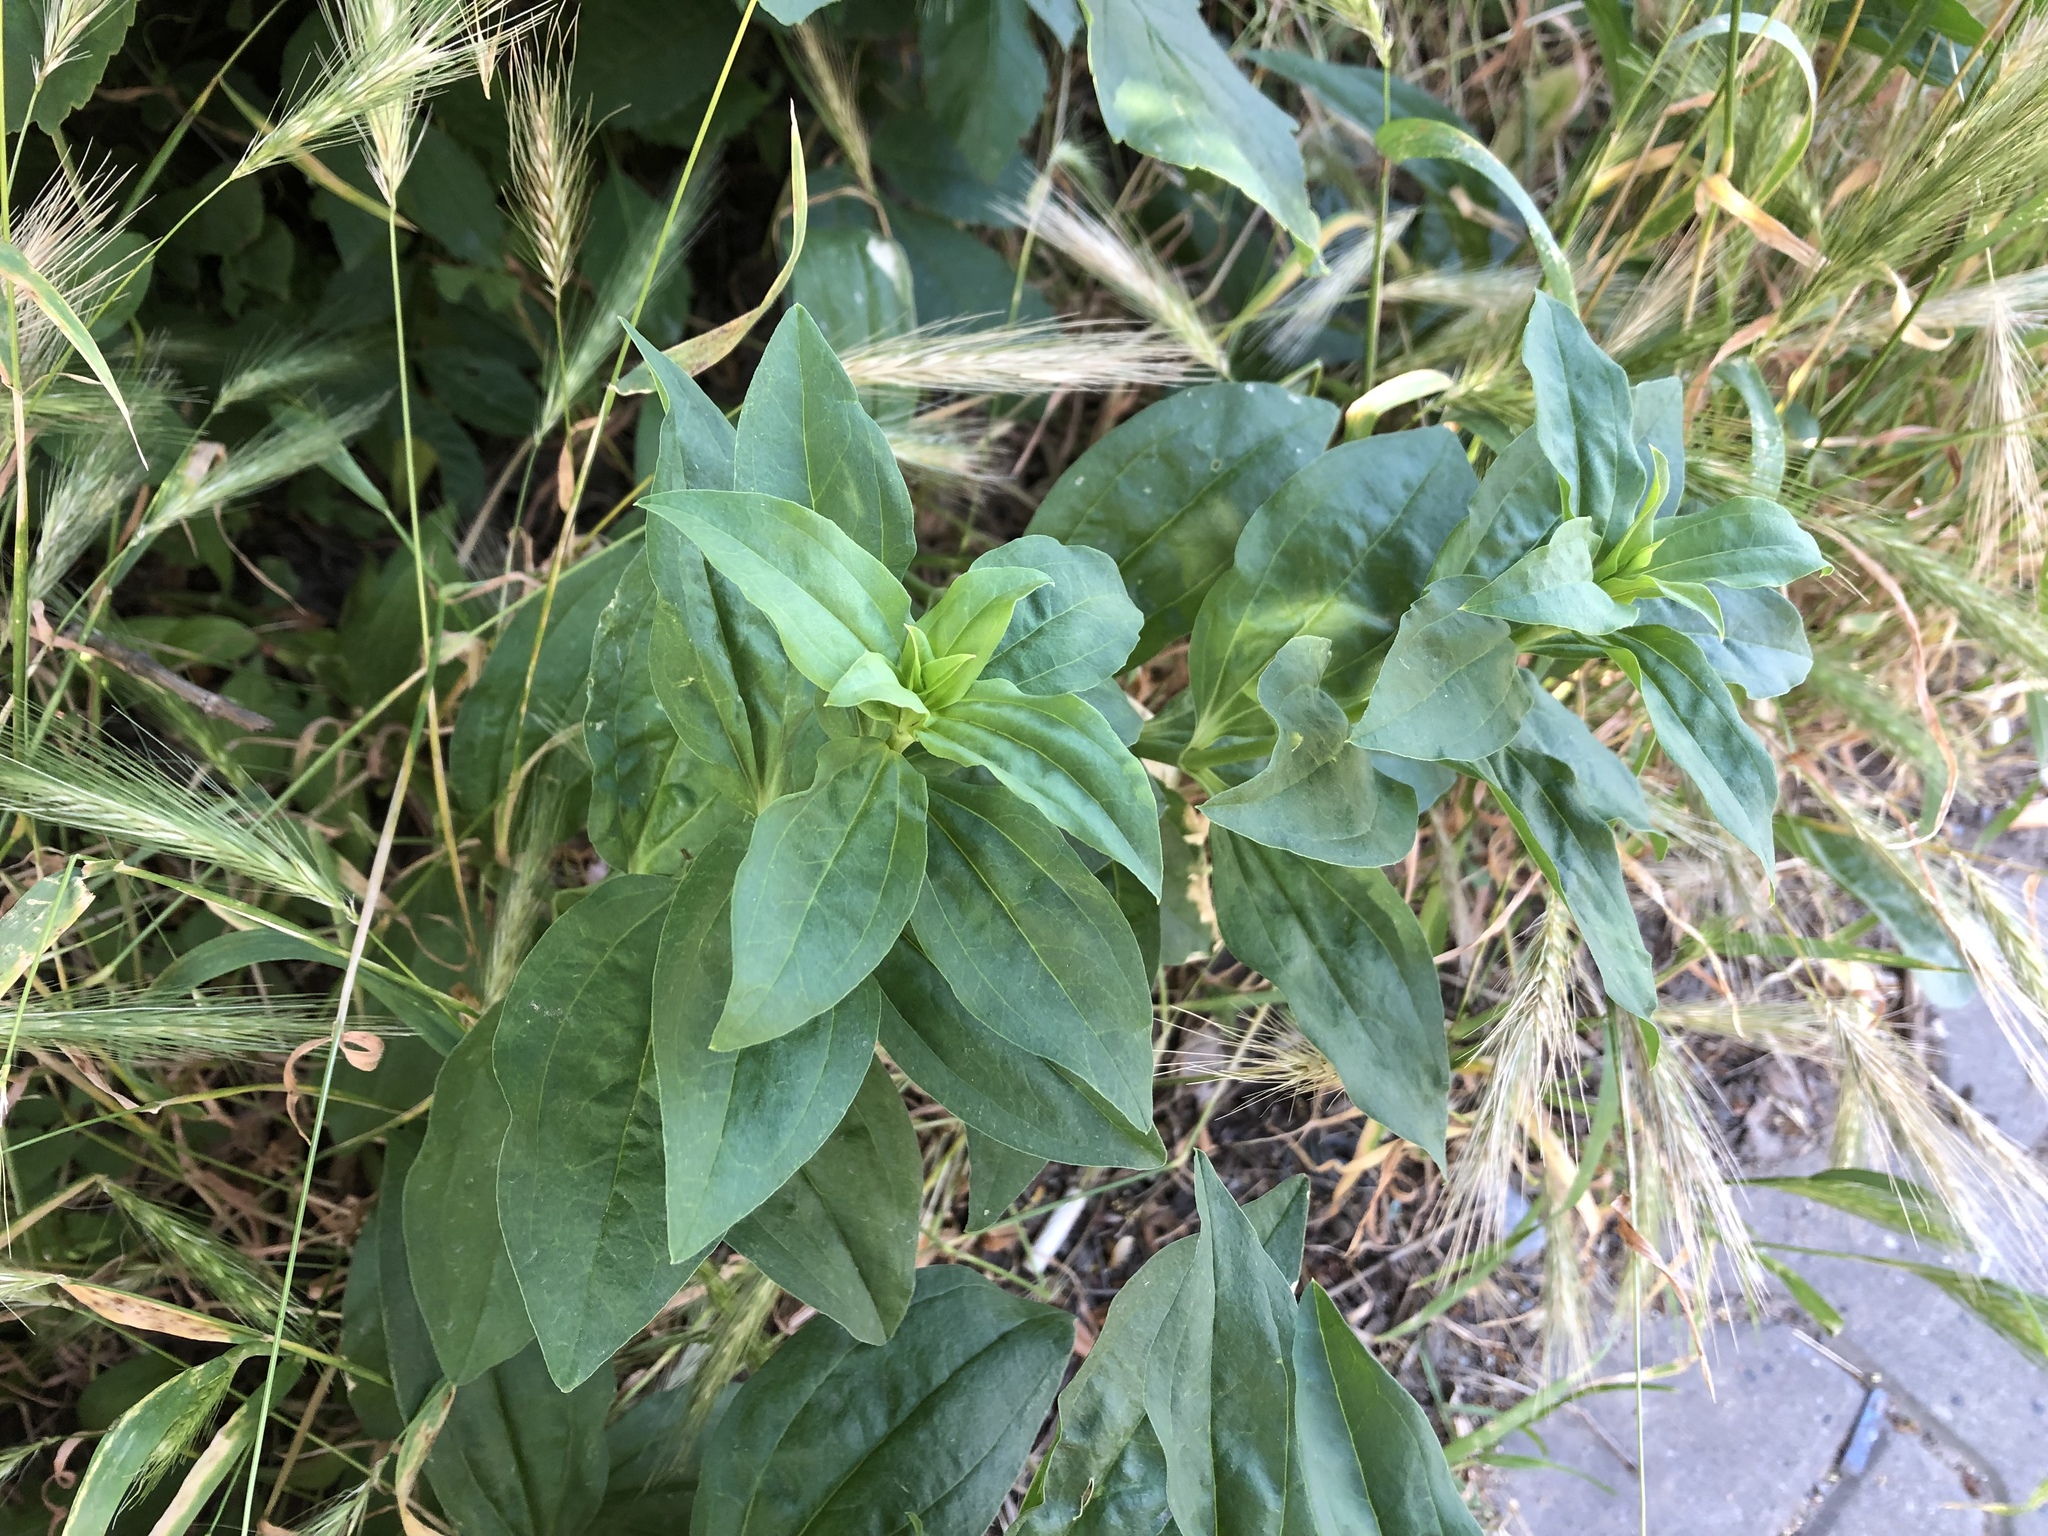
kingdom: Plantae
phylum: Tracheophyta
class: Magnoliopsida
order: Caryophyllales
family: Caryophyllaceae
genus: Saponaria
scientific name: Saponaria officinalis
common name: Soapwort
